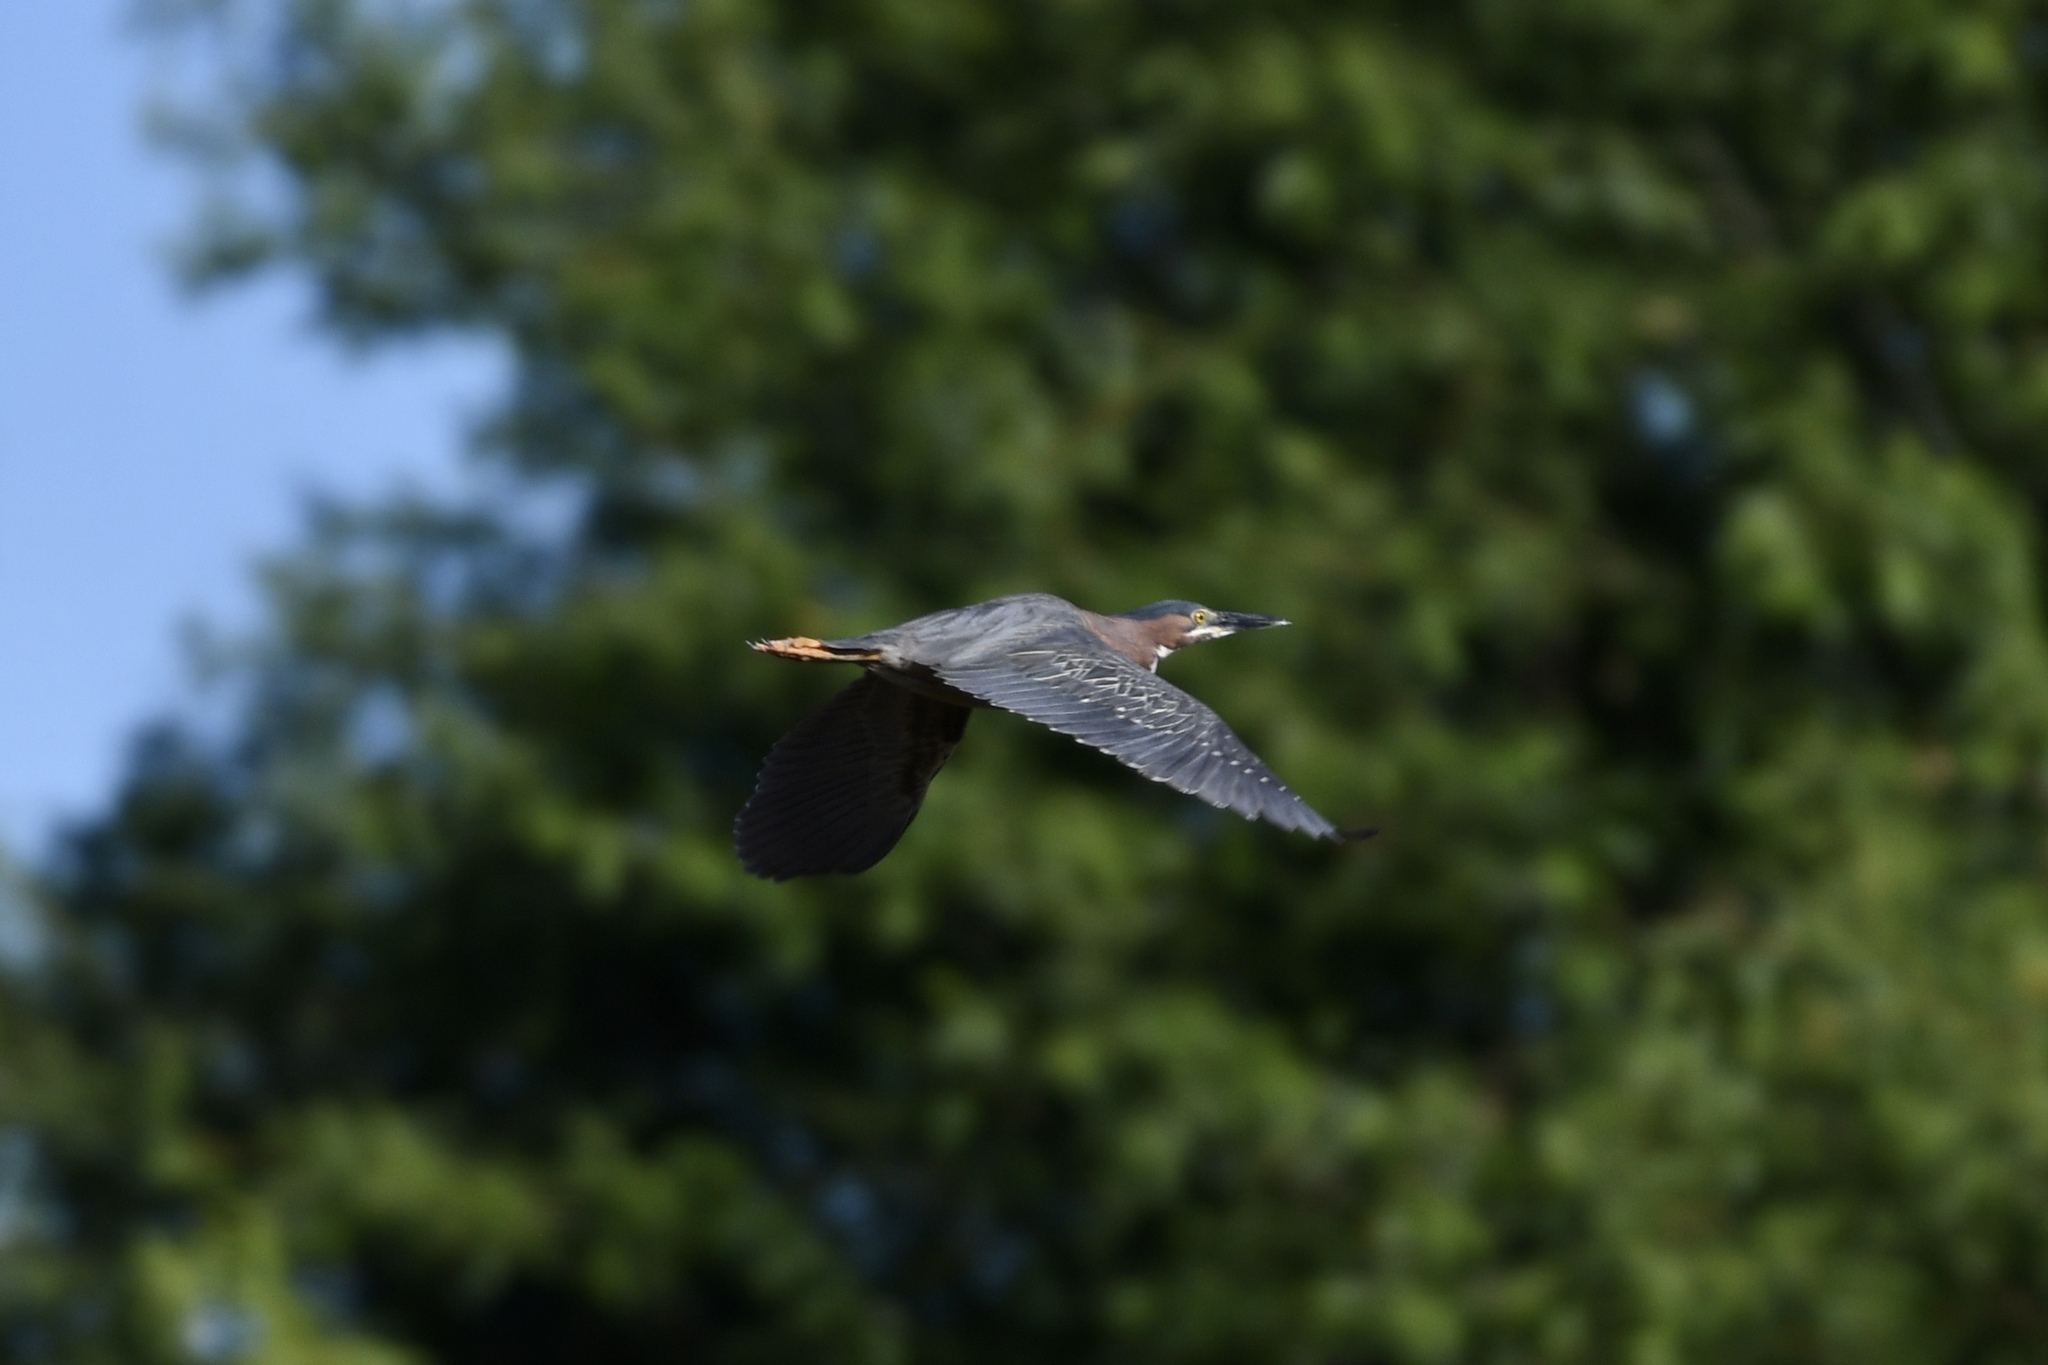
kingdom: Animalia
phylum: Chordata
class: Aves
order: Pelecaniformes
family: Ardeidae
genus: Butorides
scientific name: Butorides virescens
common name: Green heron
